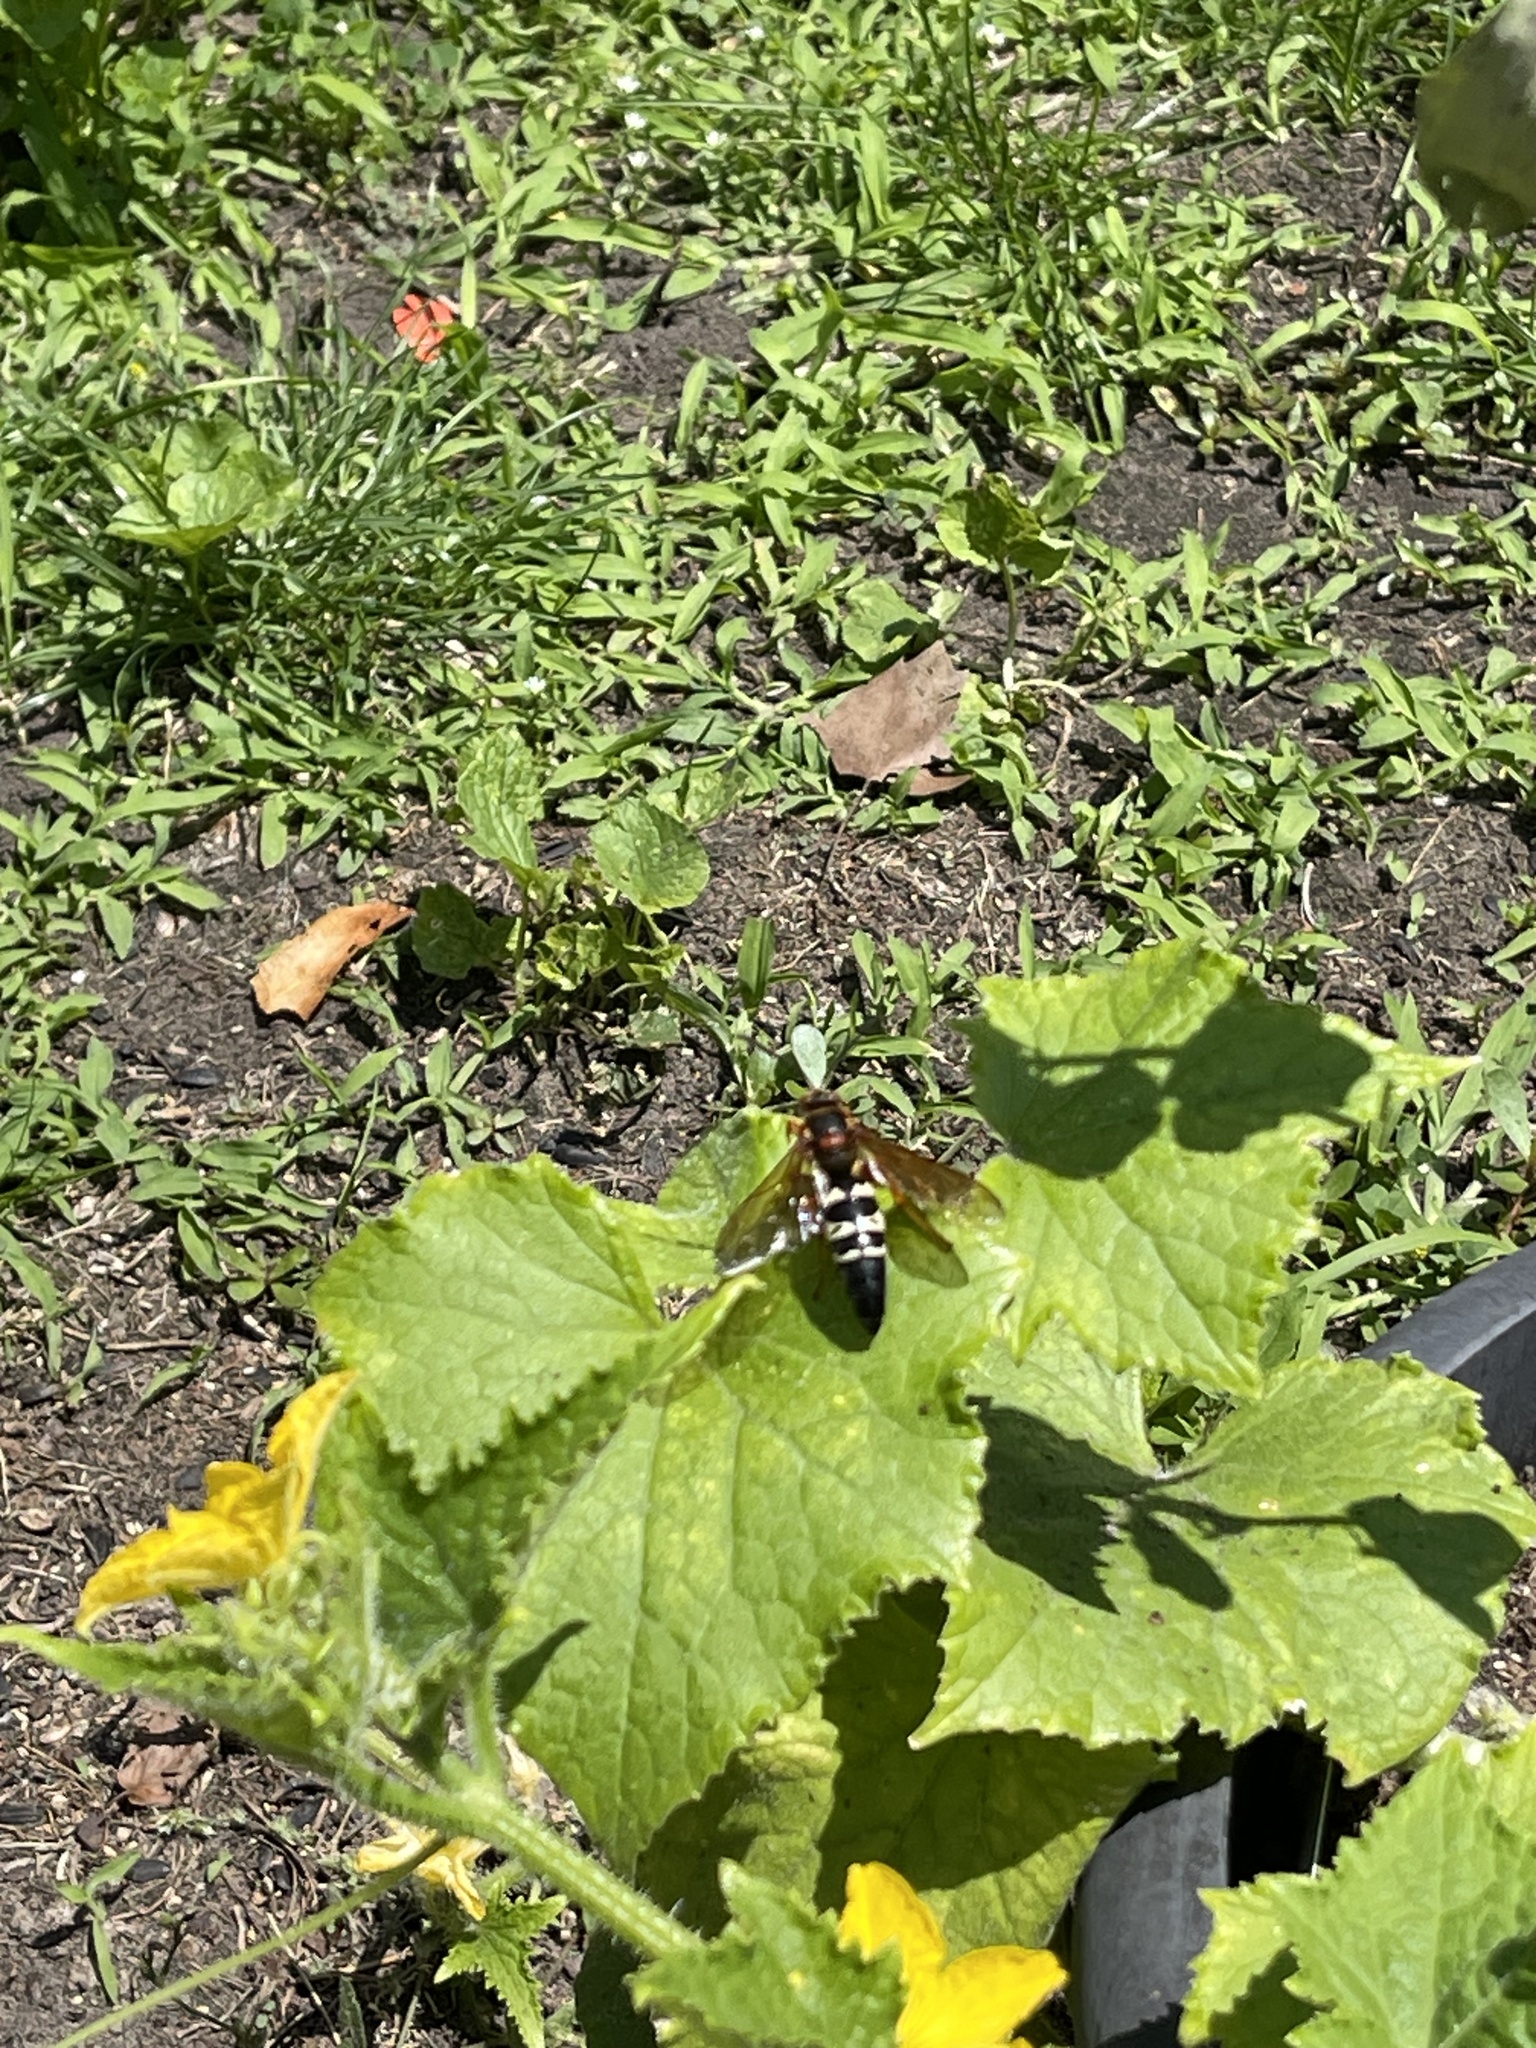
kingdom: Animalia
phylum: Arthropoda
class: Insecta
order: Hymenoptera
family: Crabronidae
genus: Sphecius
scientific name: Sphecius speciosus
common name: Cicada killer
